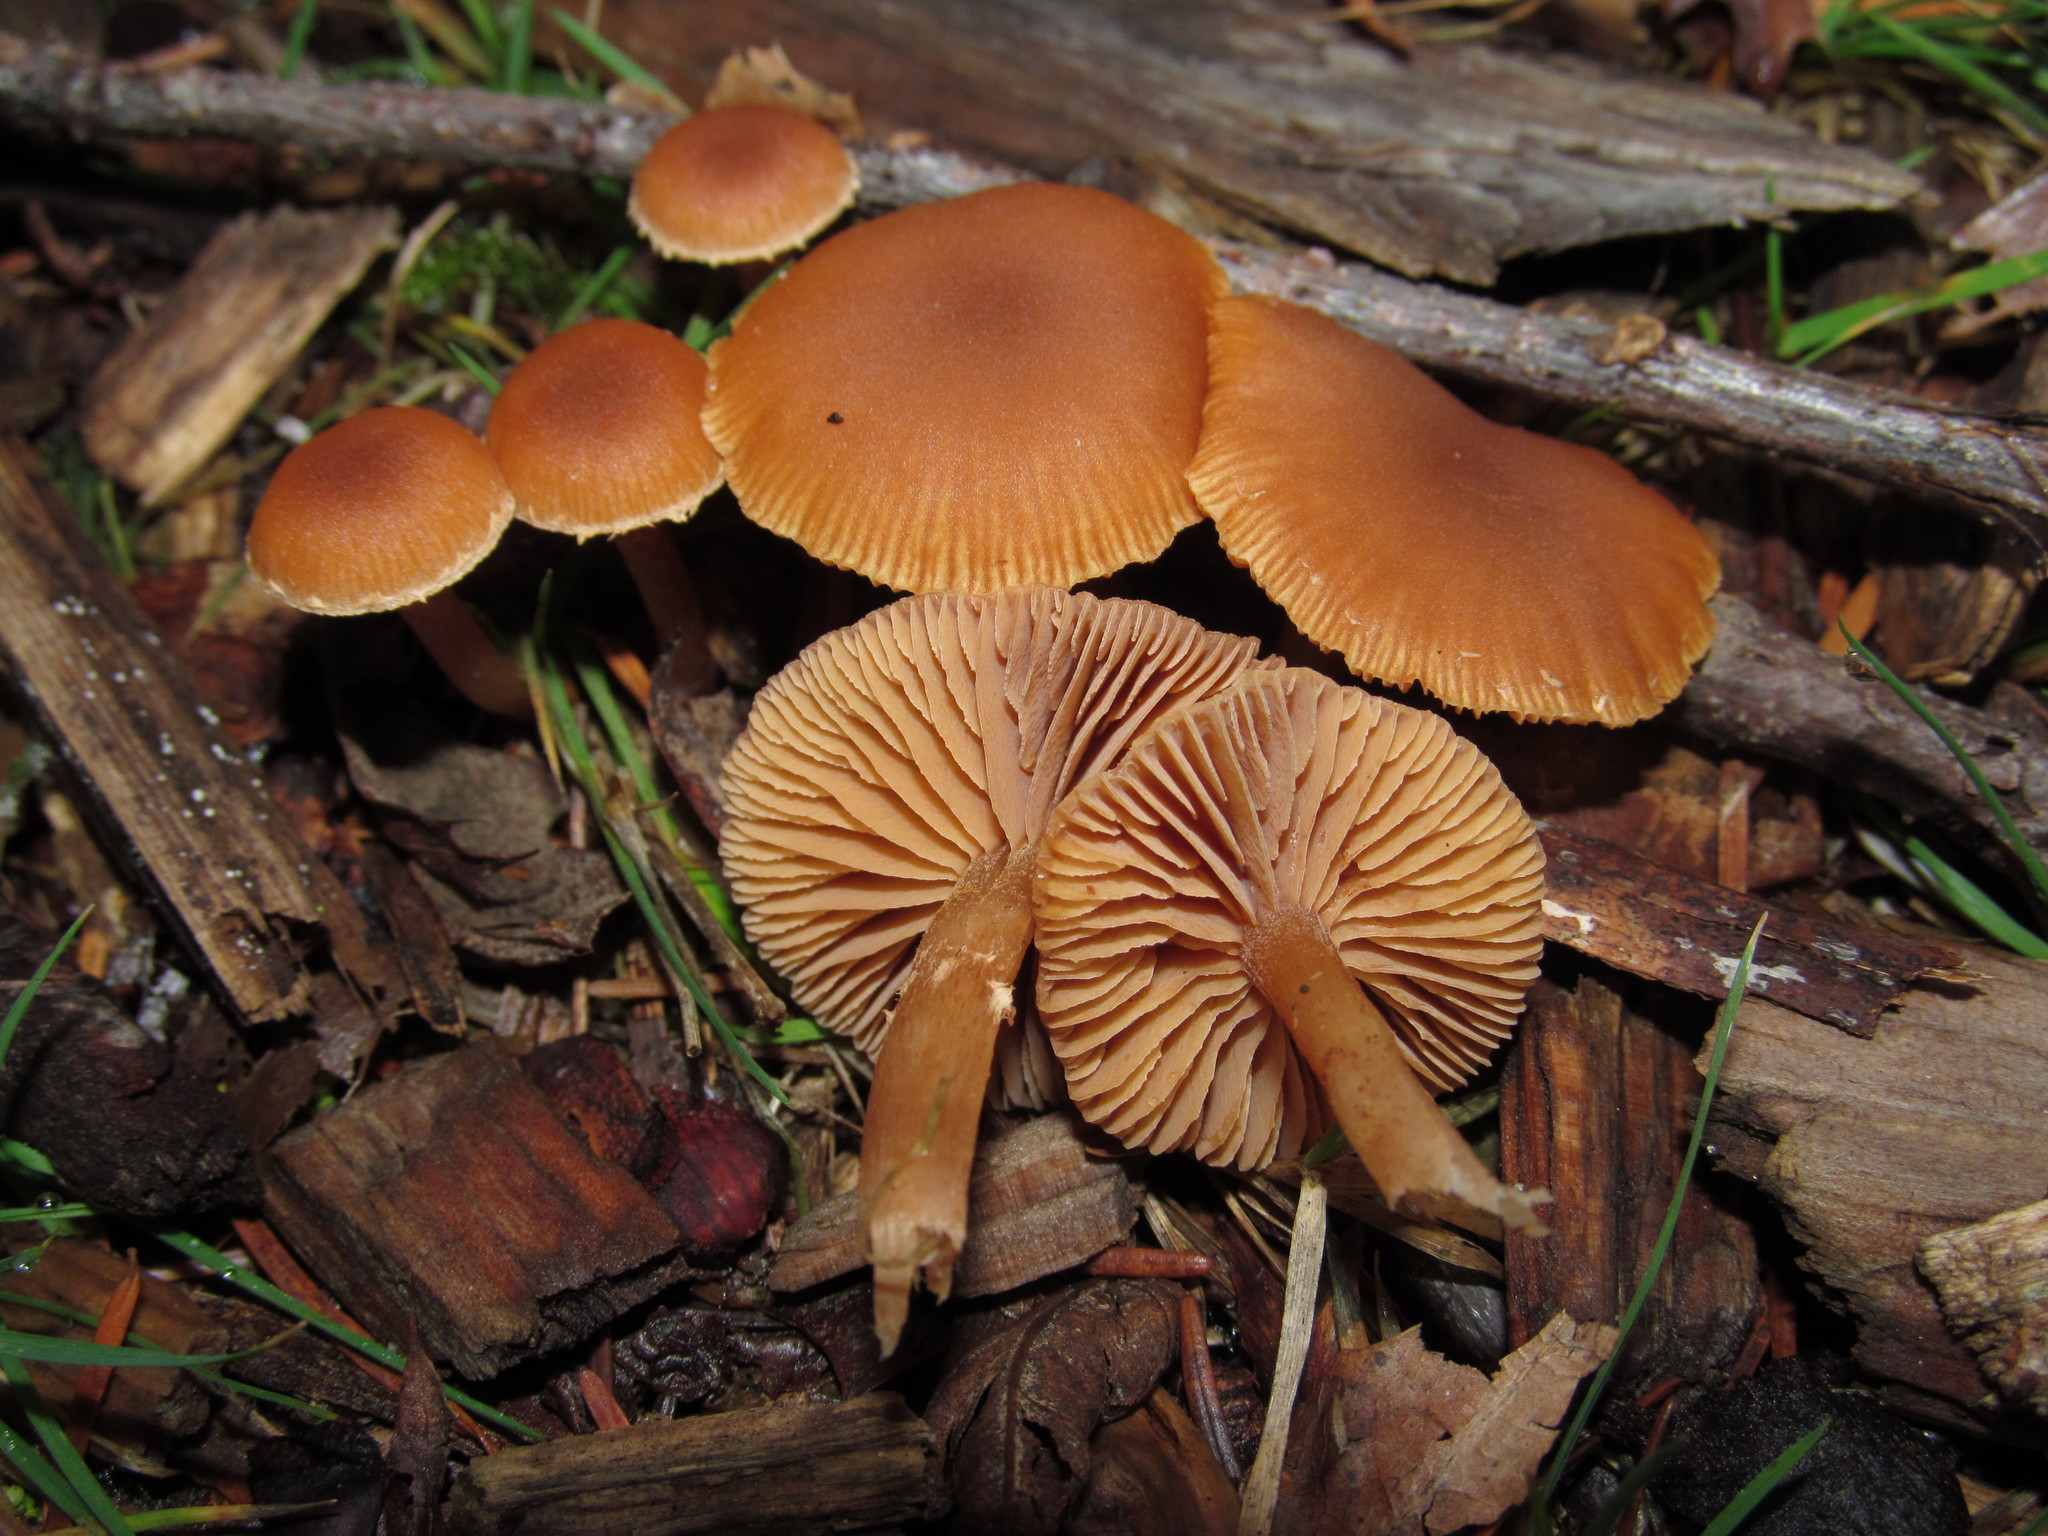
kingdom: Fungi
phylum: Basidiomycota
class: Agaricomycetes
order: Agaricales
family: Tubariaceae
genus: Tubaria
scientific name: Tubaria furfuracea
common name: Scurfy twiglet
